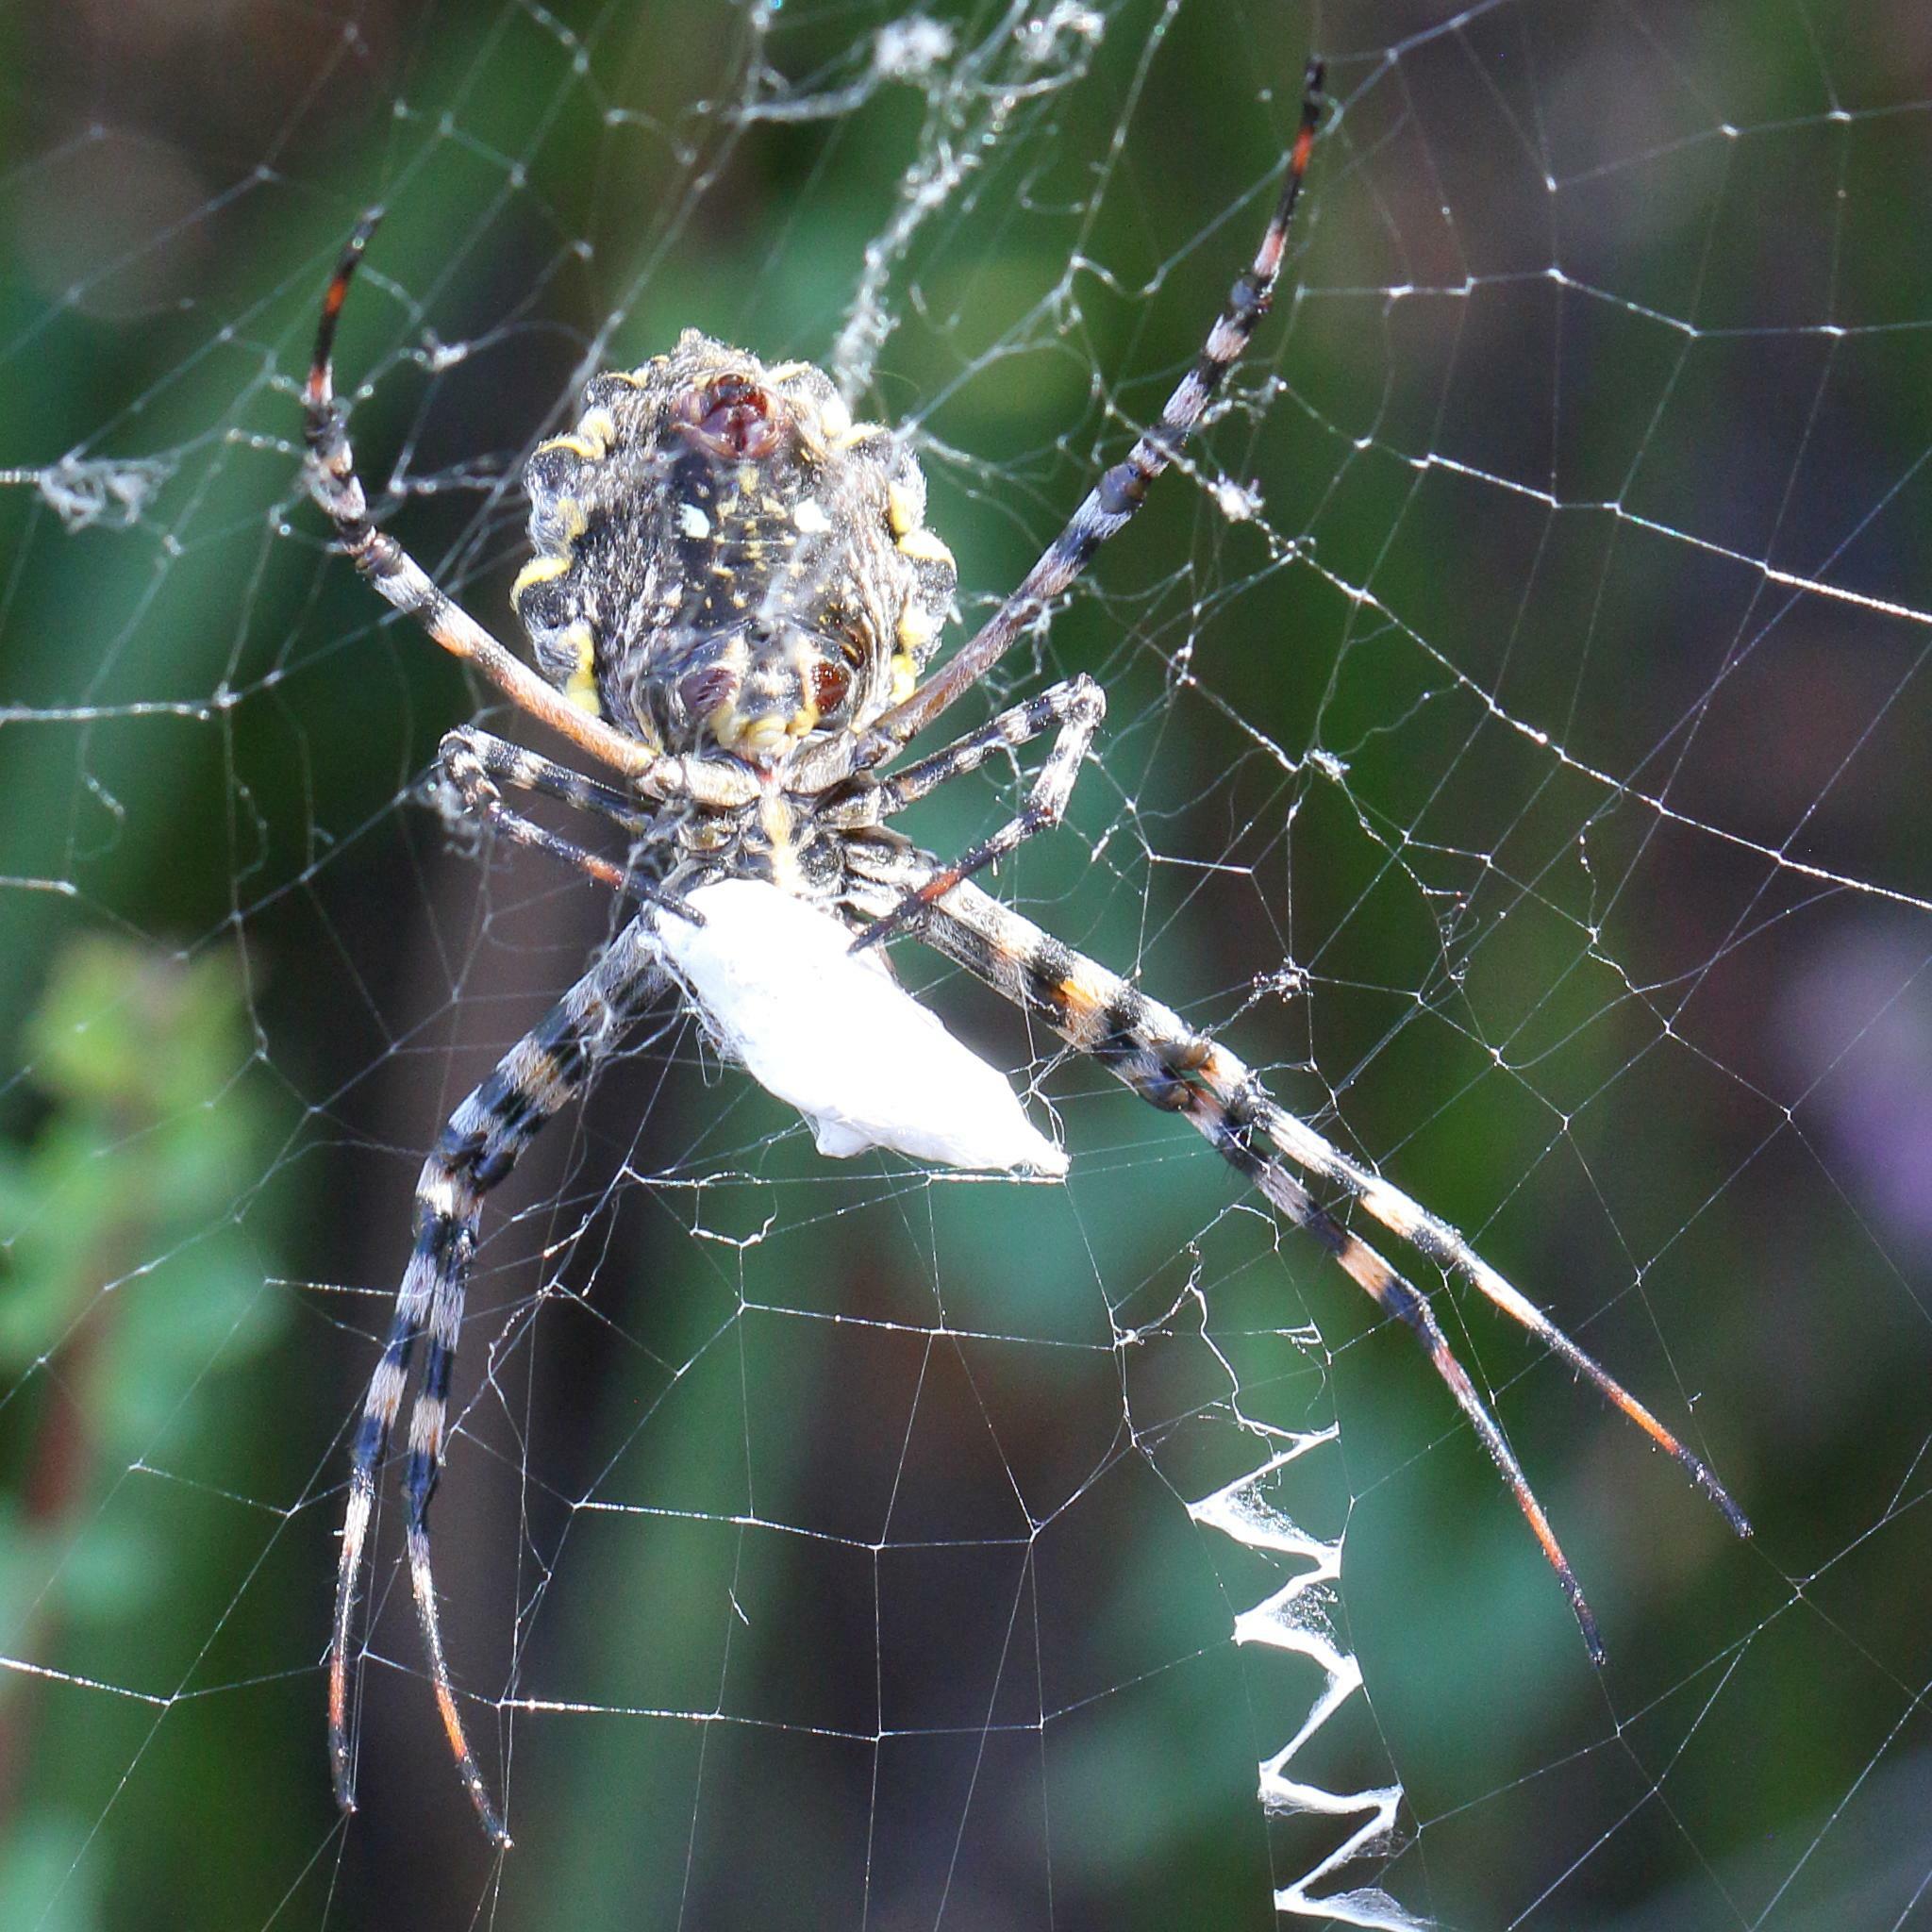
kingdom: Animalia
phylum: Arthropoda
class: Arachnida
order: Araneae
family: Araneidae
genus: Argiope
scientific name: Argiope australis
